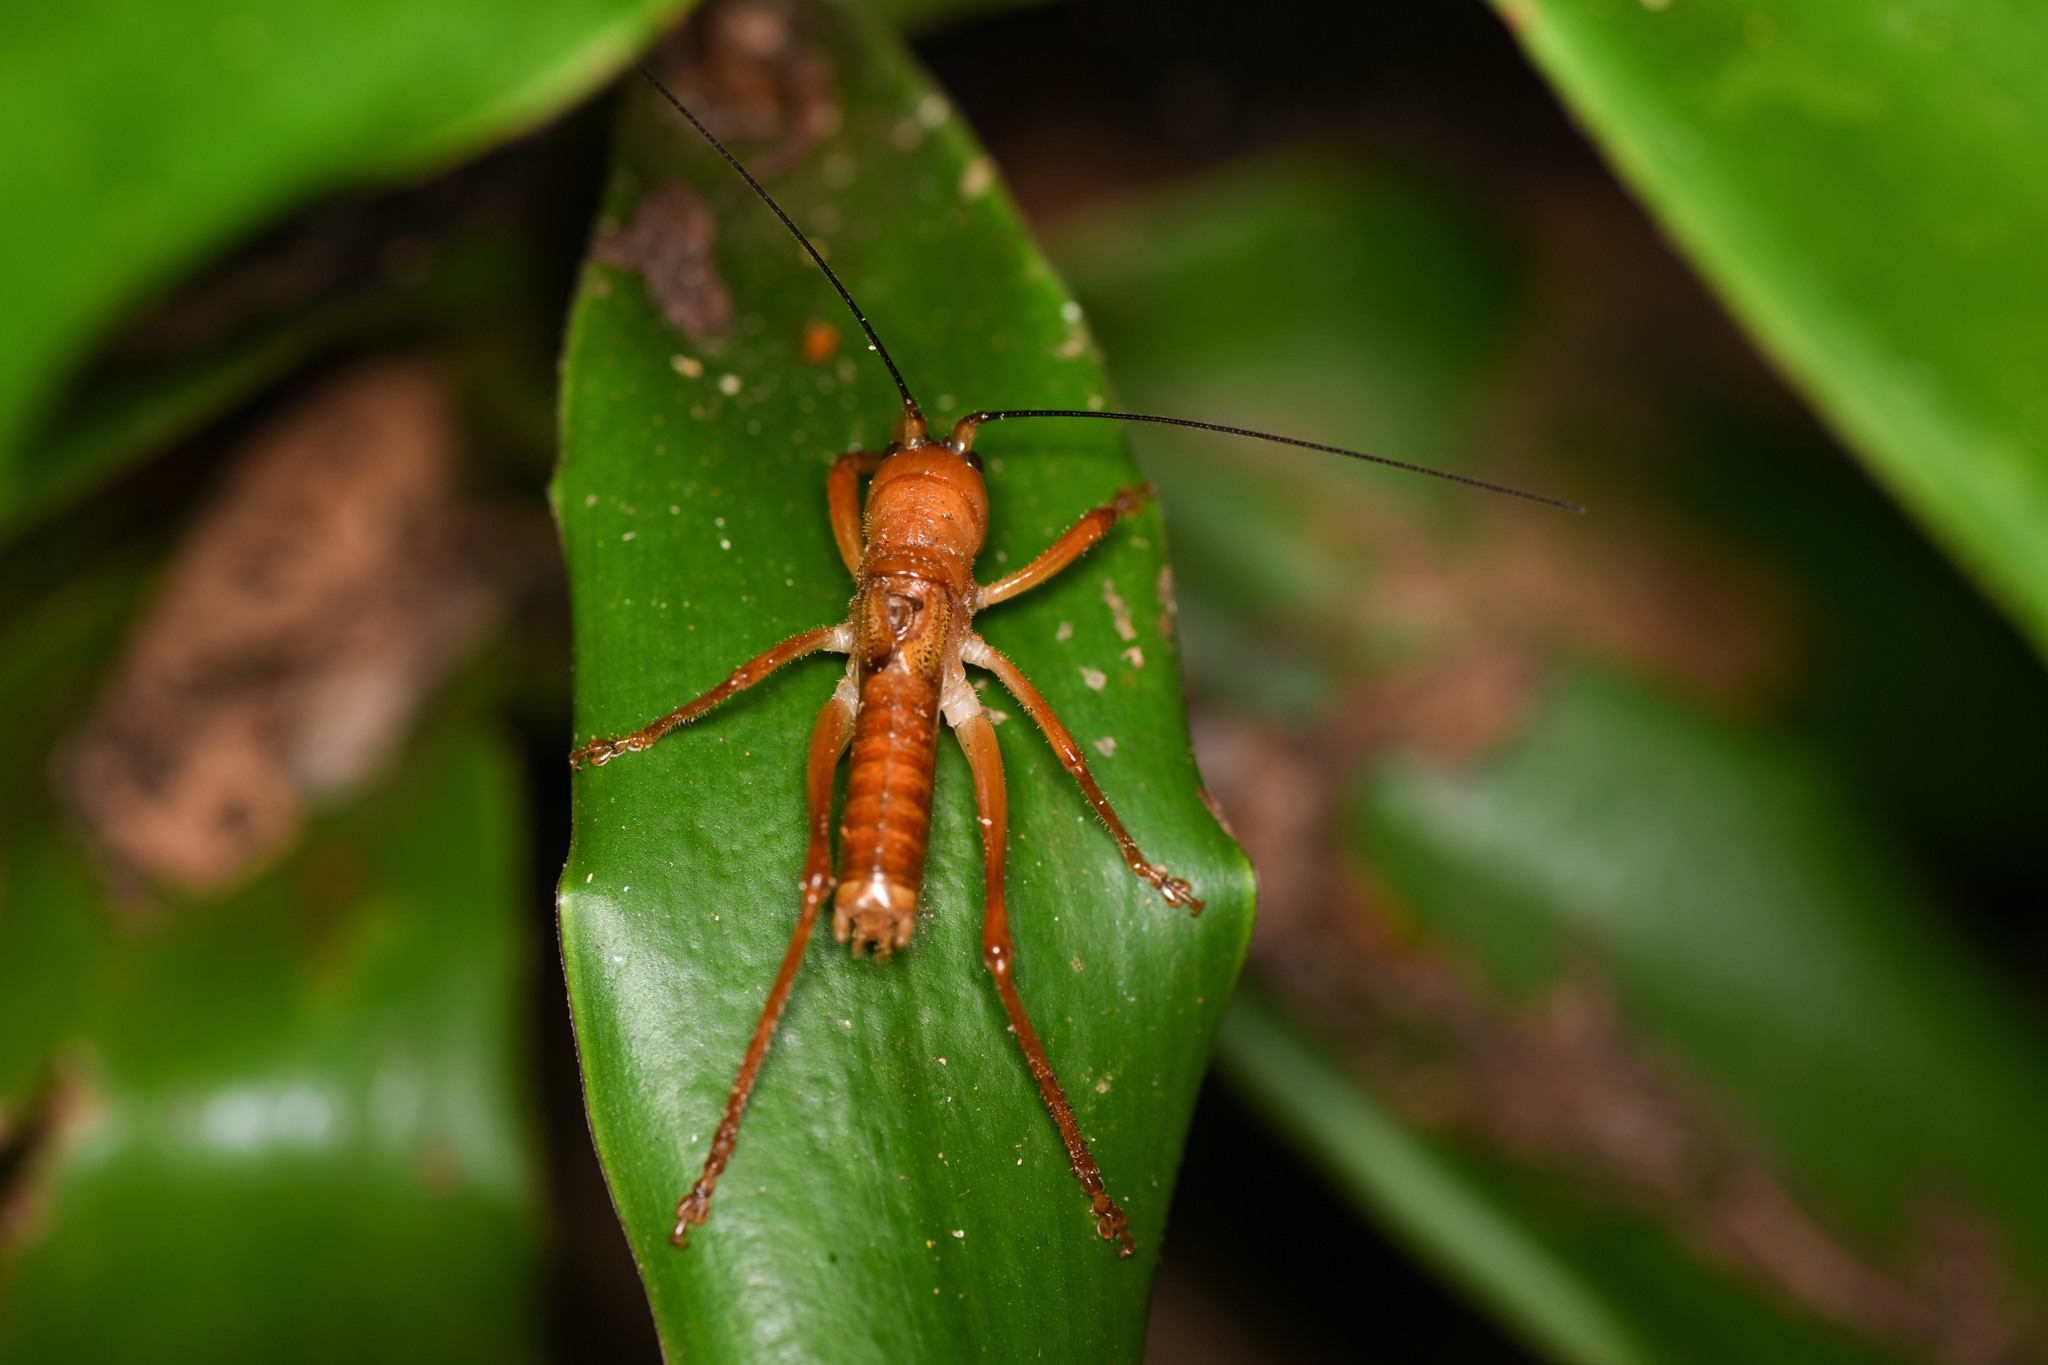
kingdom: Animalia
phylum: Arthropoda
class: Insecta
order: Orthoptera
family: Tettigoniidae
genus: Melanonotus
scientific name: Melanonotus powellorum
